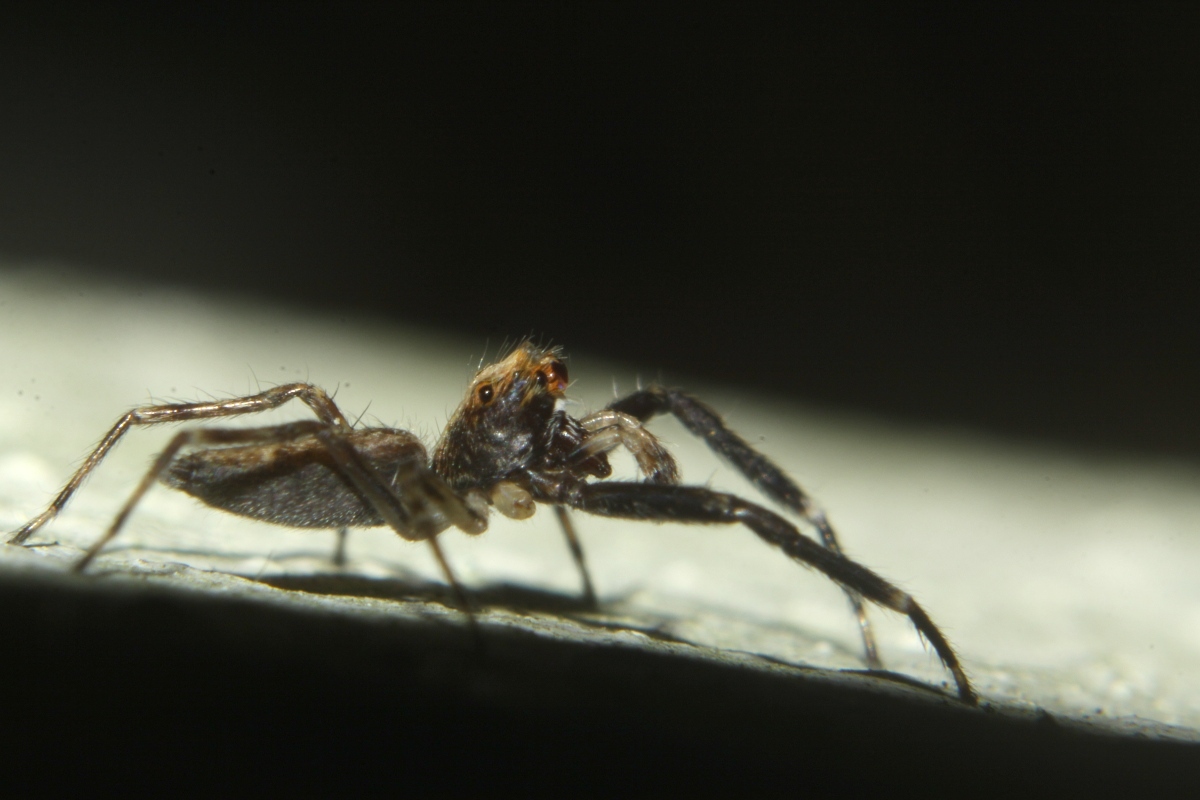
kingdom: Animalia
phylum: Arthropoda
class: Arachnida
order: Araneae
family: Salticidae
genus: Helpis
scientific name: Helpis minitabunda
